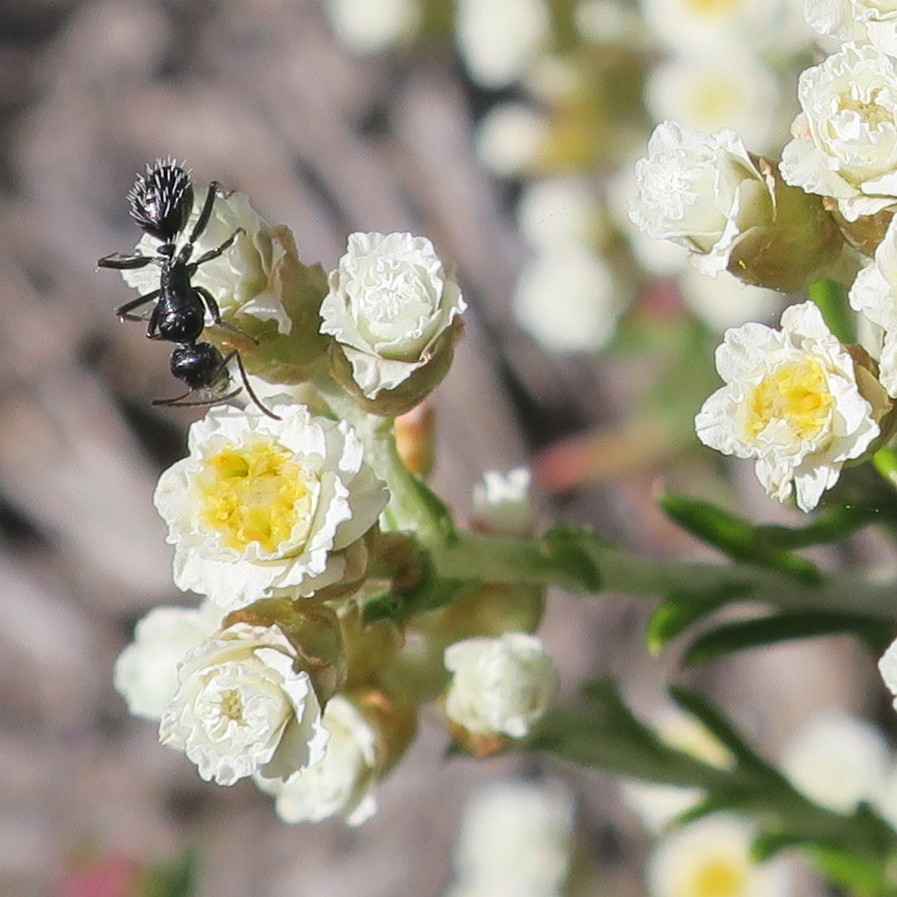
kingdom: Animalia
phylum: Arthropoda
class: Insecta
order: Hymenoptera
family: Formicidae
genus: Camponotus
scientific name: Camponotus niveosetosus
